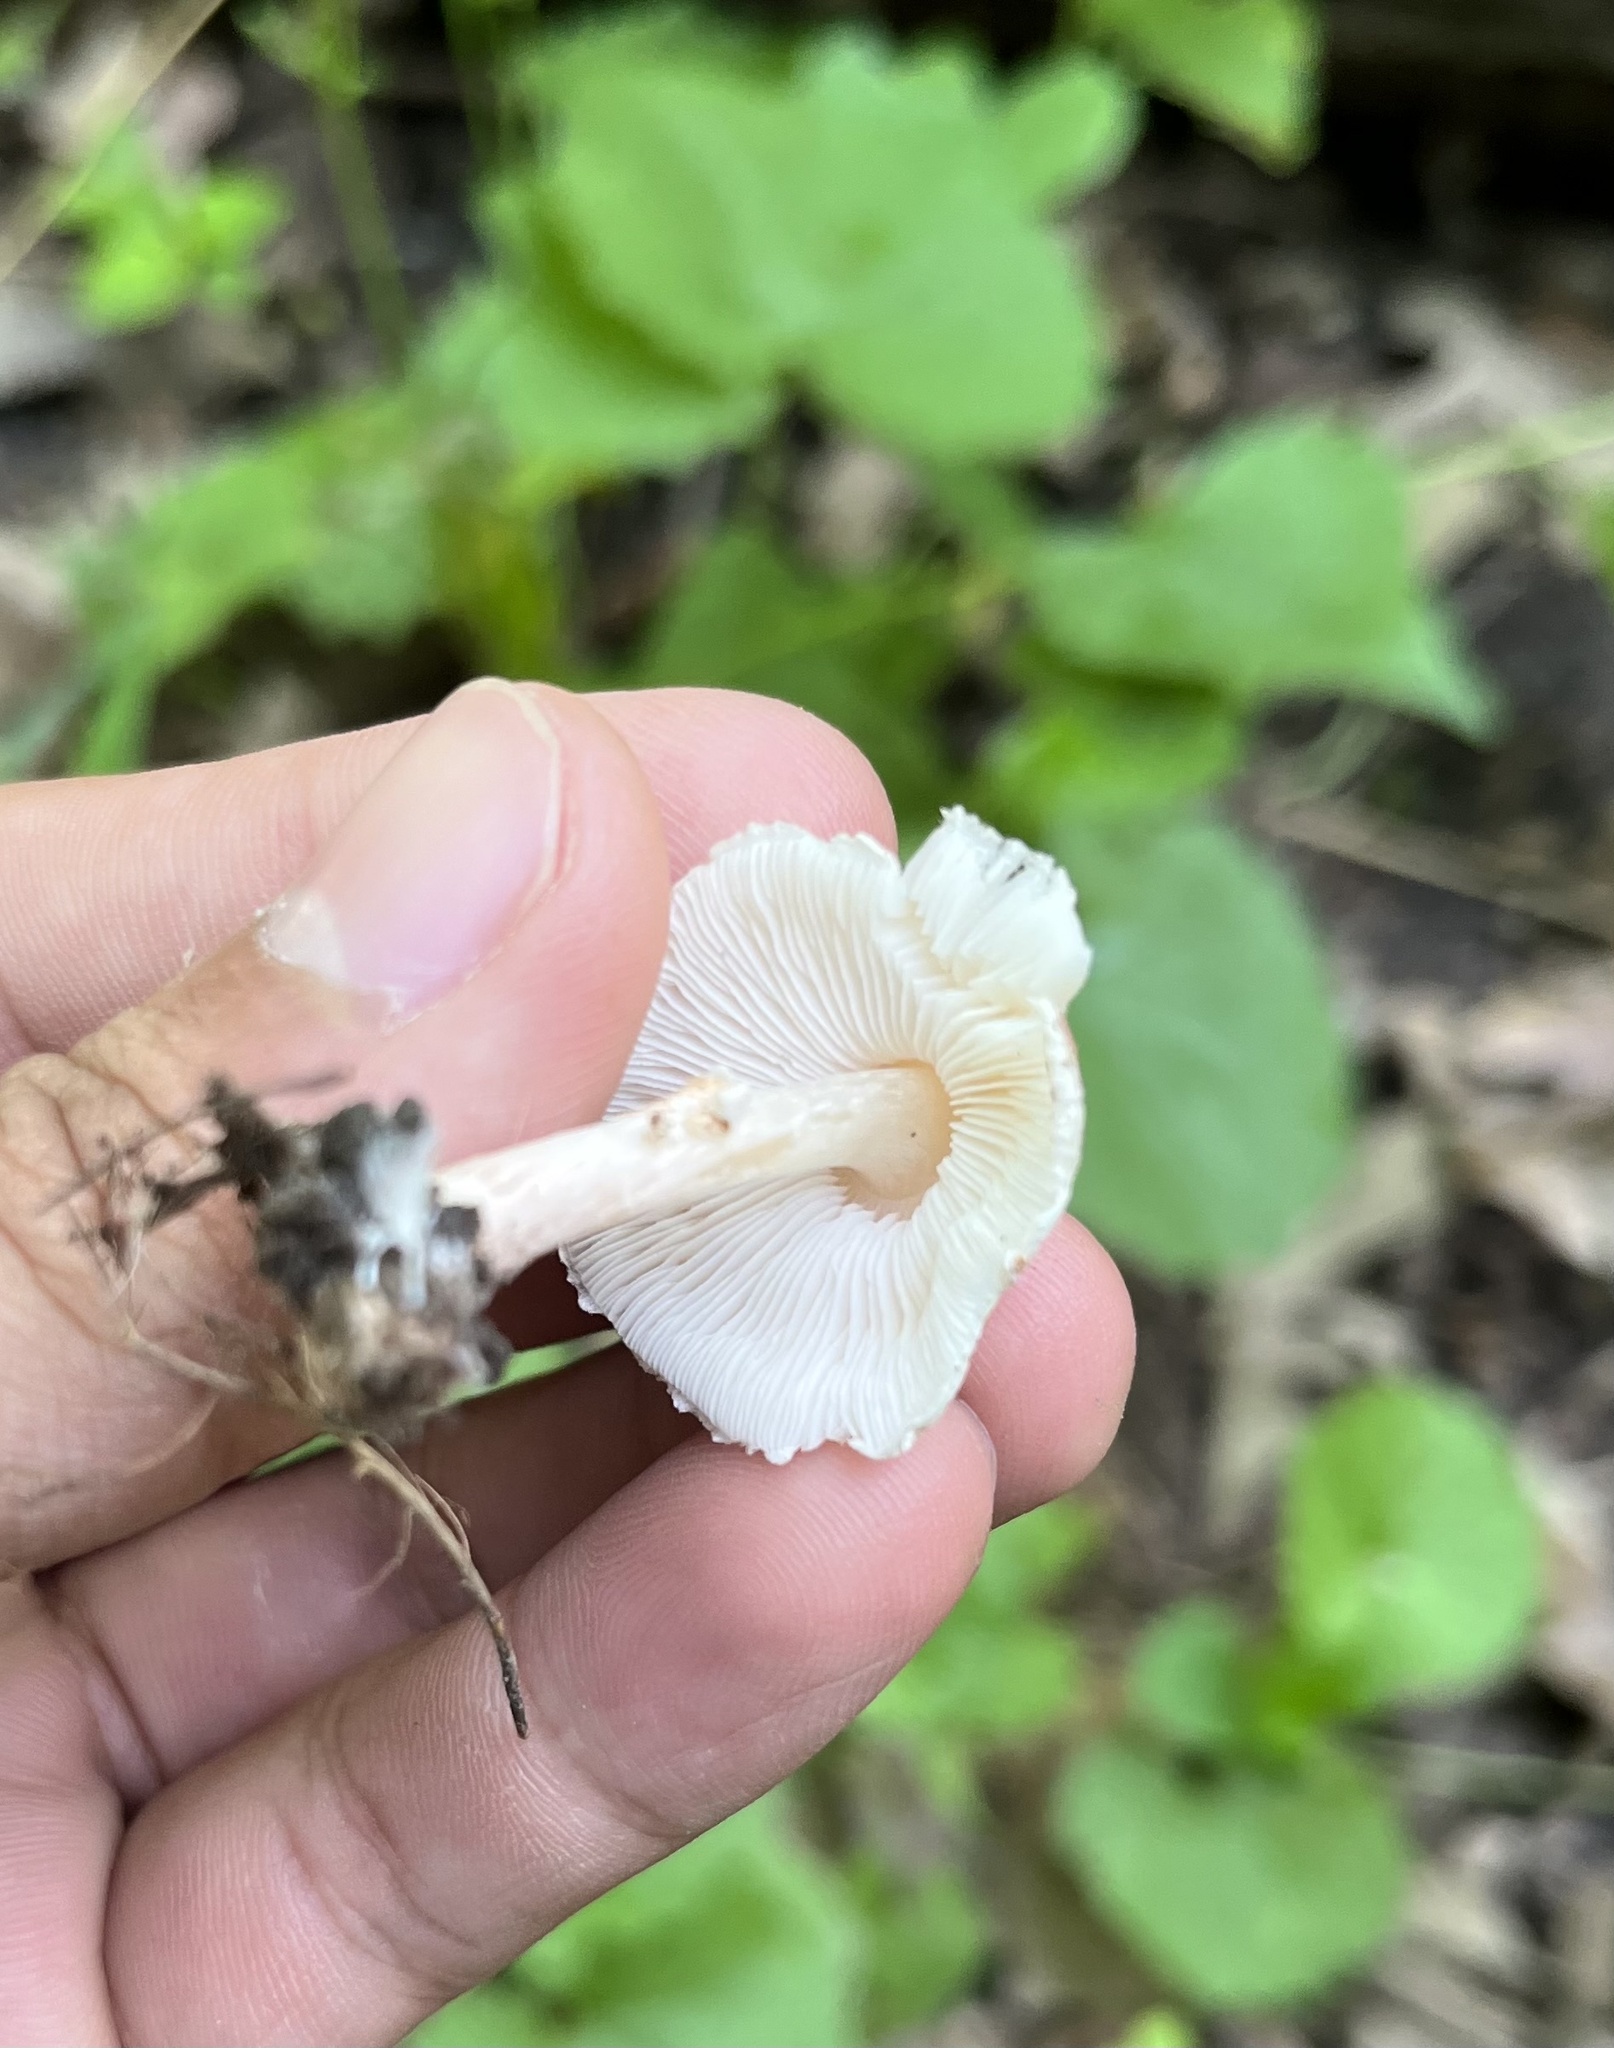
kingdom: Fungi
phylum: Basidiomycota
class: Agaricomycetes
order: Agaricales
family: Agaricaceae
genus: Lepiota
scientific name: Lepiota cristata
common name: Stinking dapperling
